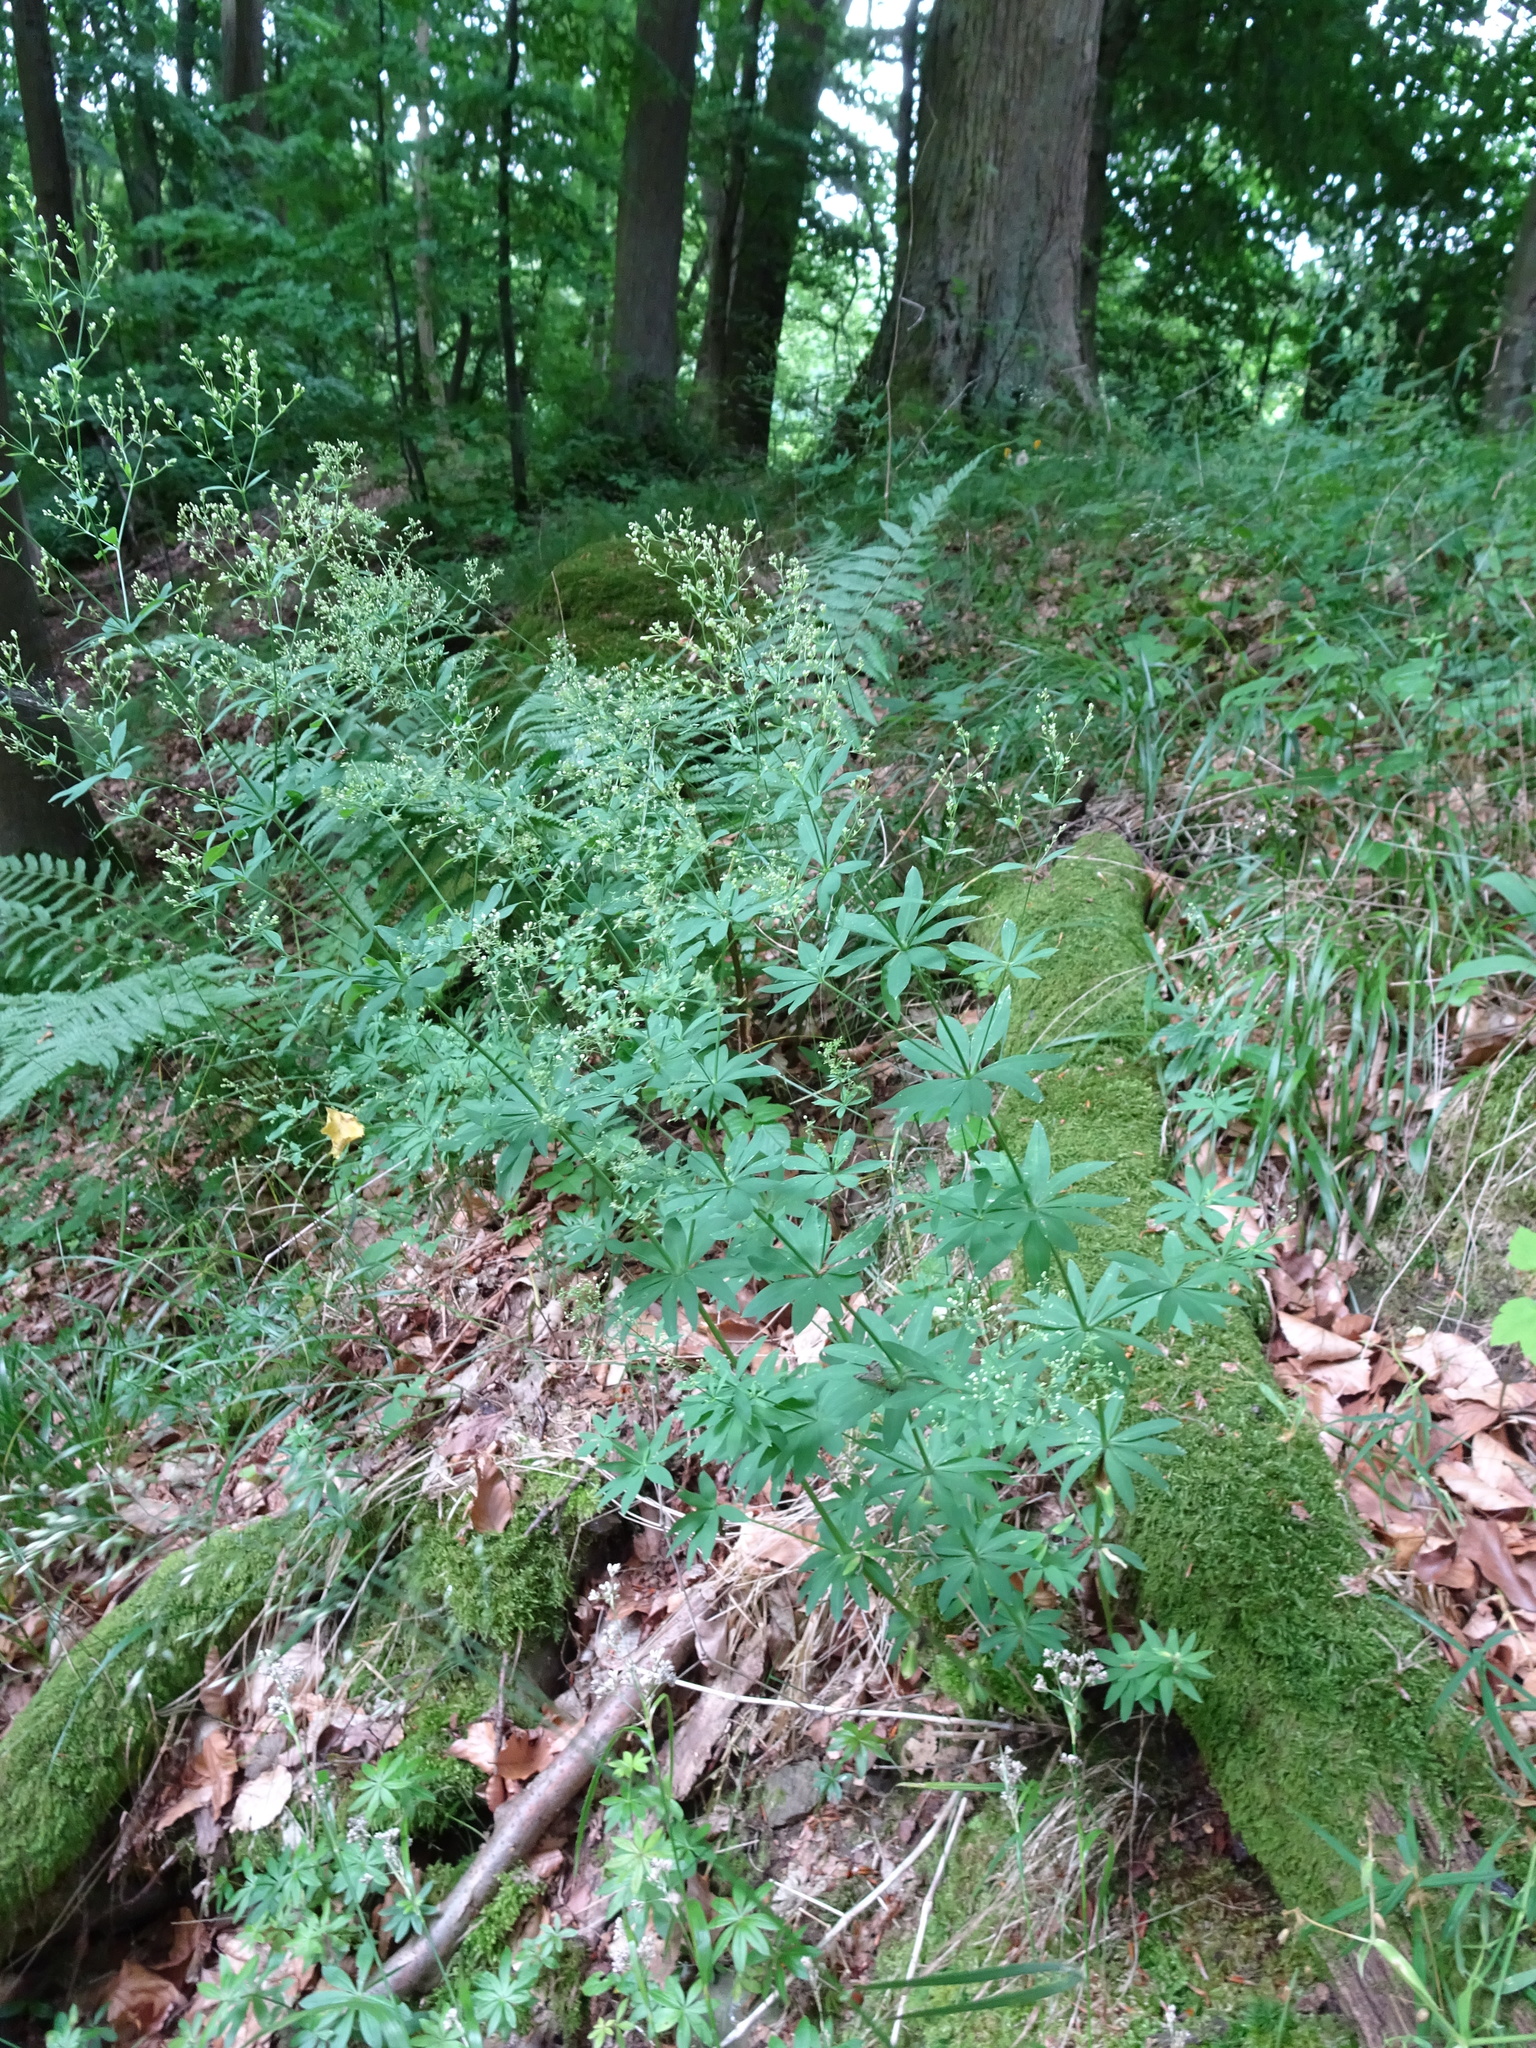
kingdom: Plantae
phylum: Tracheophyta
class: Magnoliopsida
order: Gentianales
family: Rubiaceae
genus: Galium
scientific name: Galium sylvaticum
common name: Wood bedstraw
